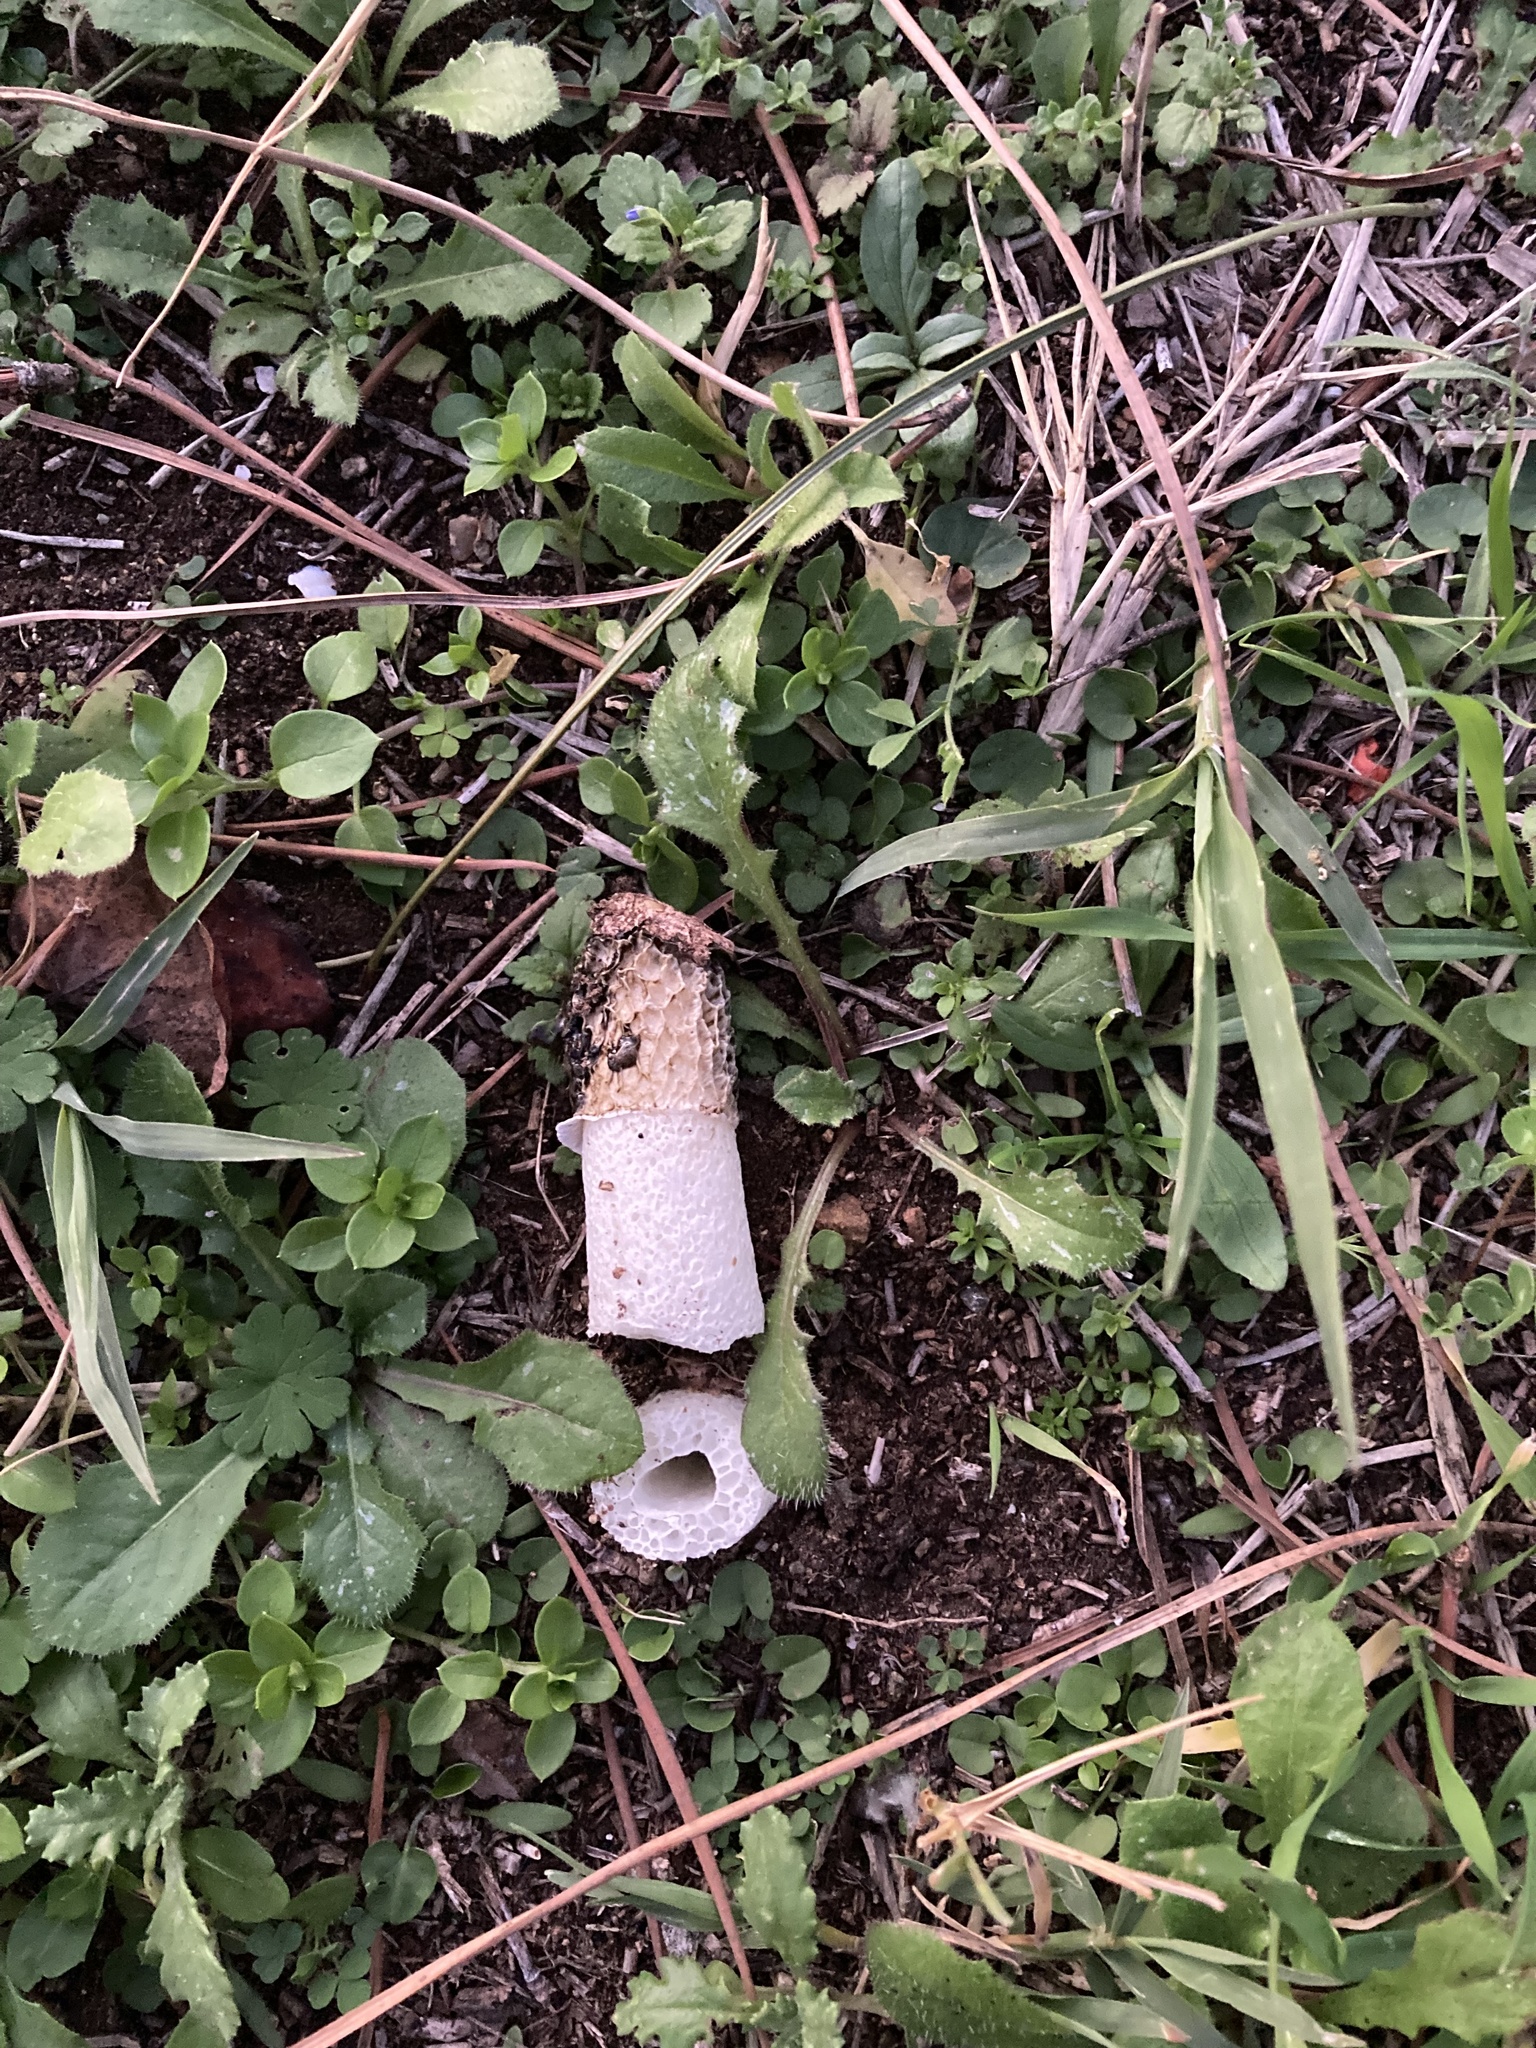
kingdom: Fungi
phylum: Basidiomycota
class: Agaricomycetes
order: Phallales
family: Phallaceae
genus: Phallus
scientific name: Phallus hadriani
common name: Sand stinkhorn
